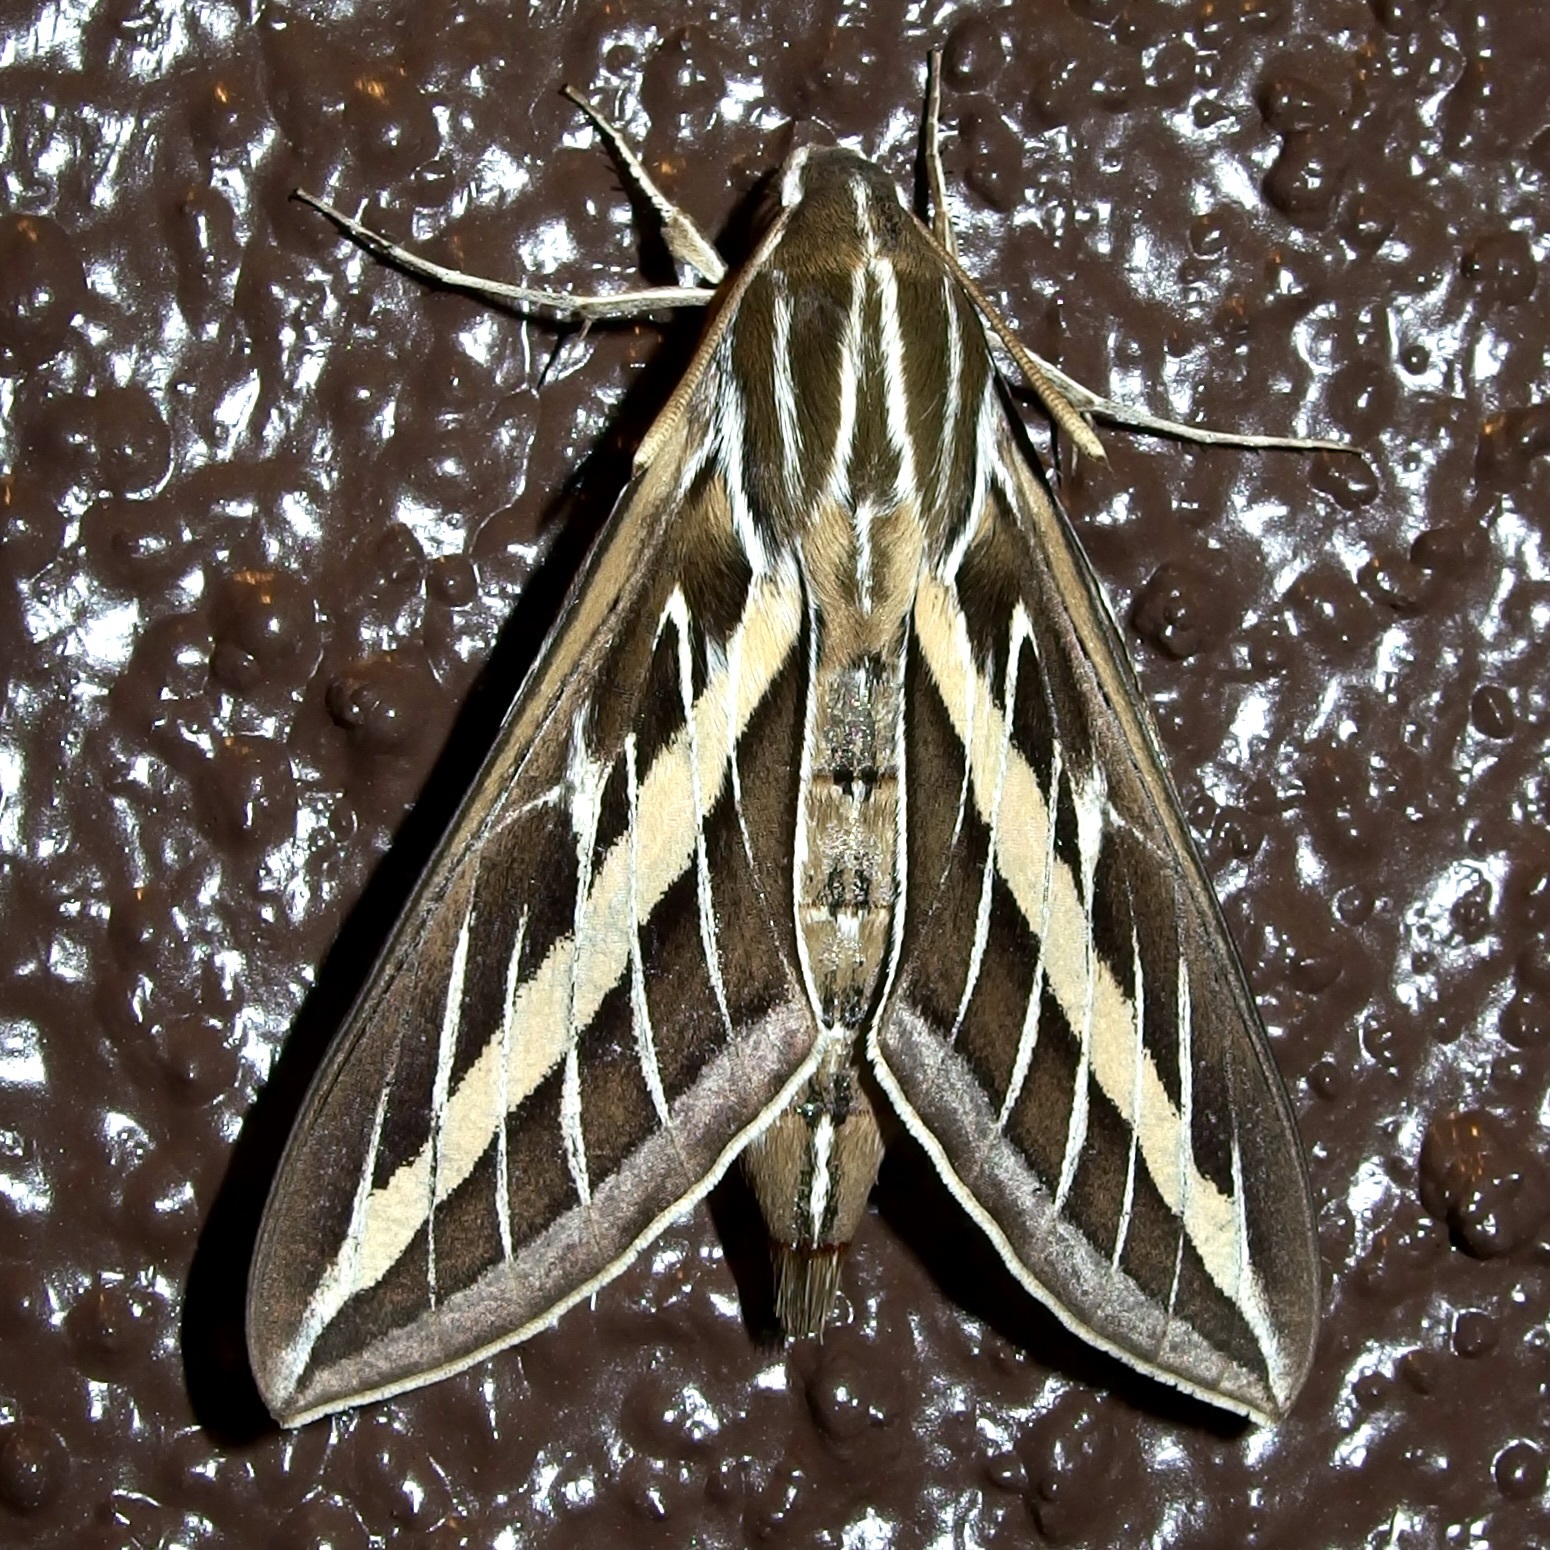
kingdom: Animalia
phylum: Arthropoda
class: Insecta
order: Lepidoptera
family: Sphingidae
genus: Hyles
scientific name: Hyles lineata
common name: White-lined sphinx
